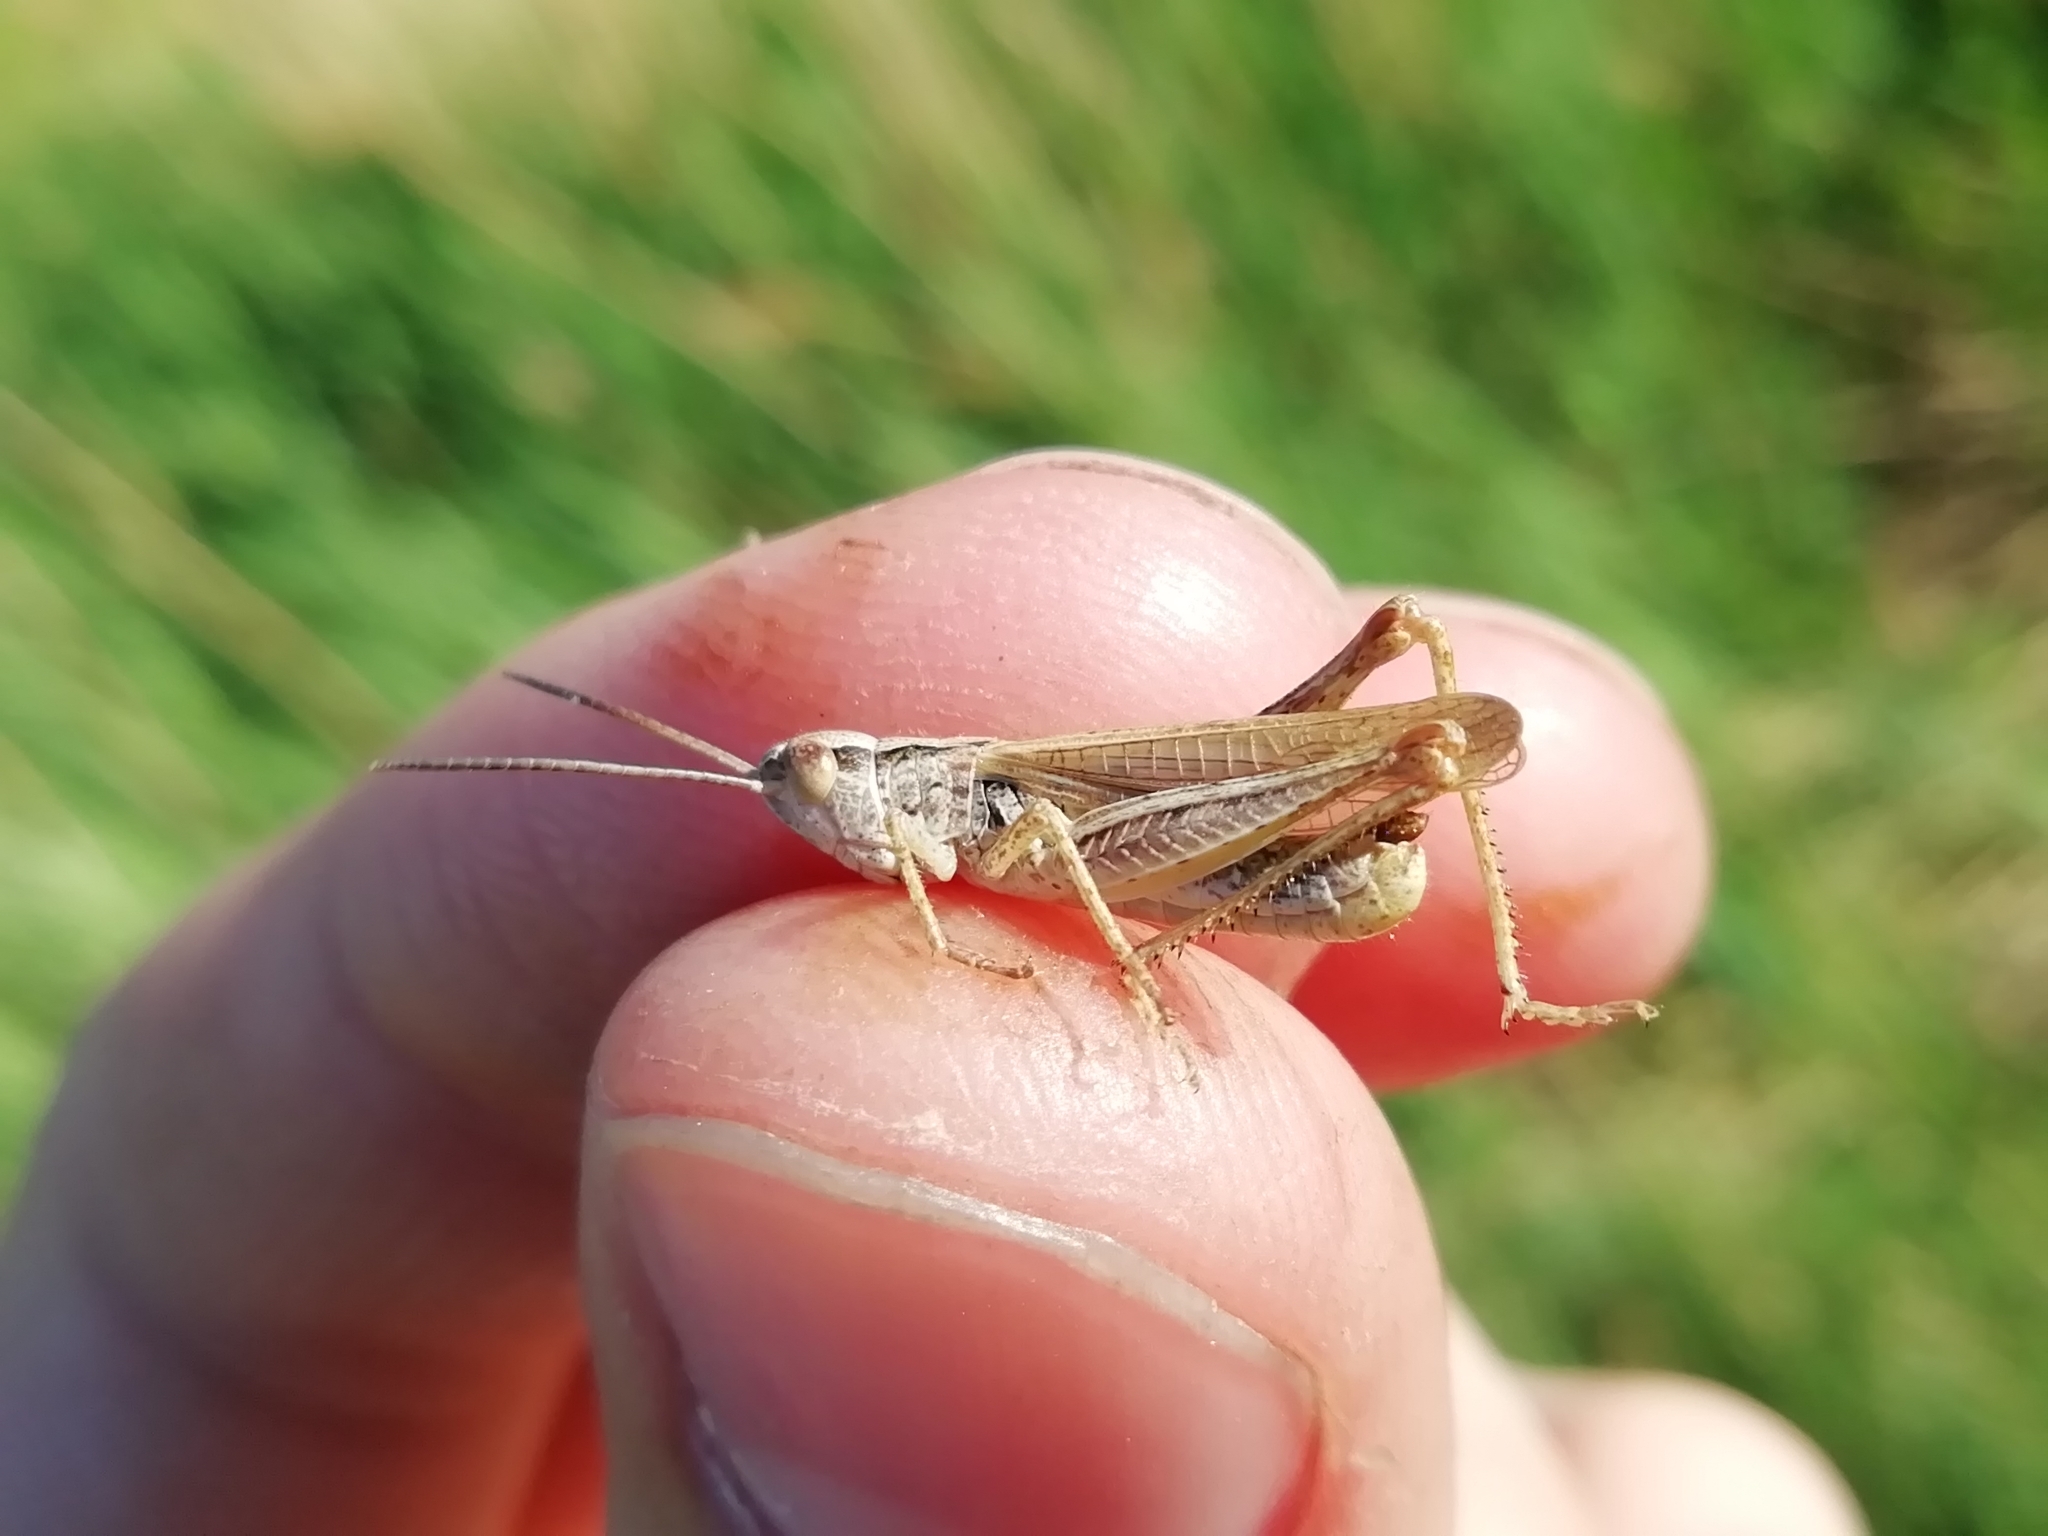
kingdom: Animalia
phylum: Arthropoda
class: Insecta
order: Orthoptera
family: Acrididae
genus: Chorthippus
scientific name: Chorthippus apricarius
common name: Upland field grasshopper
